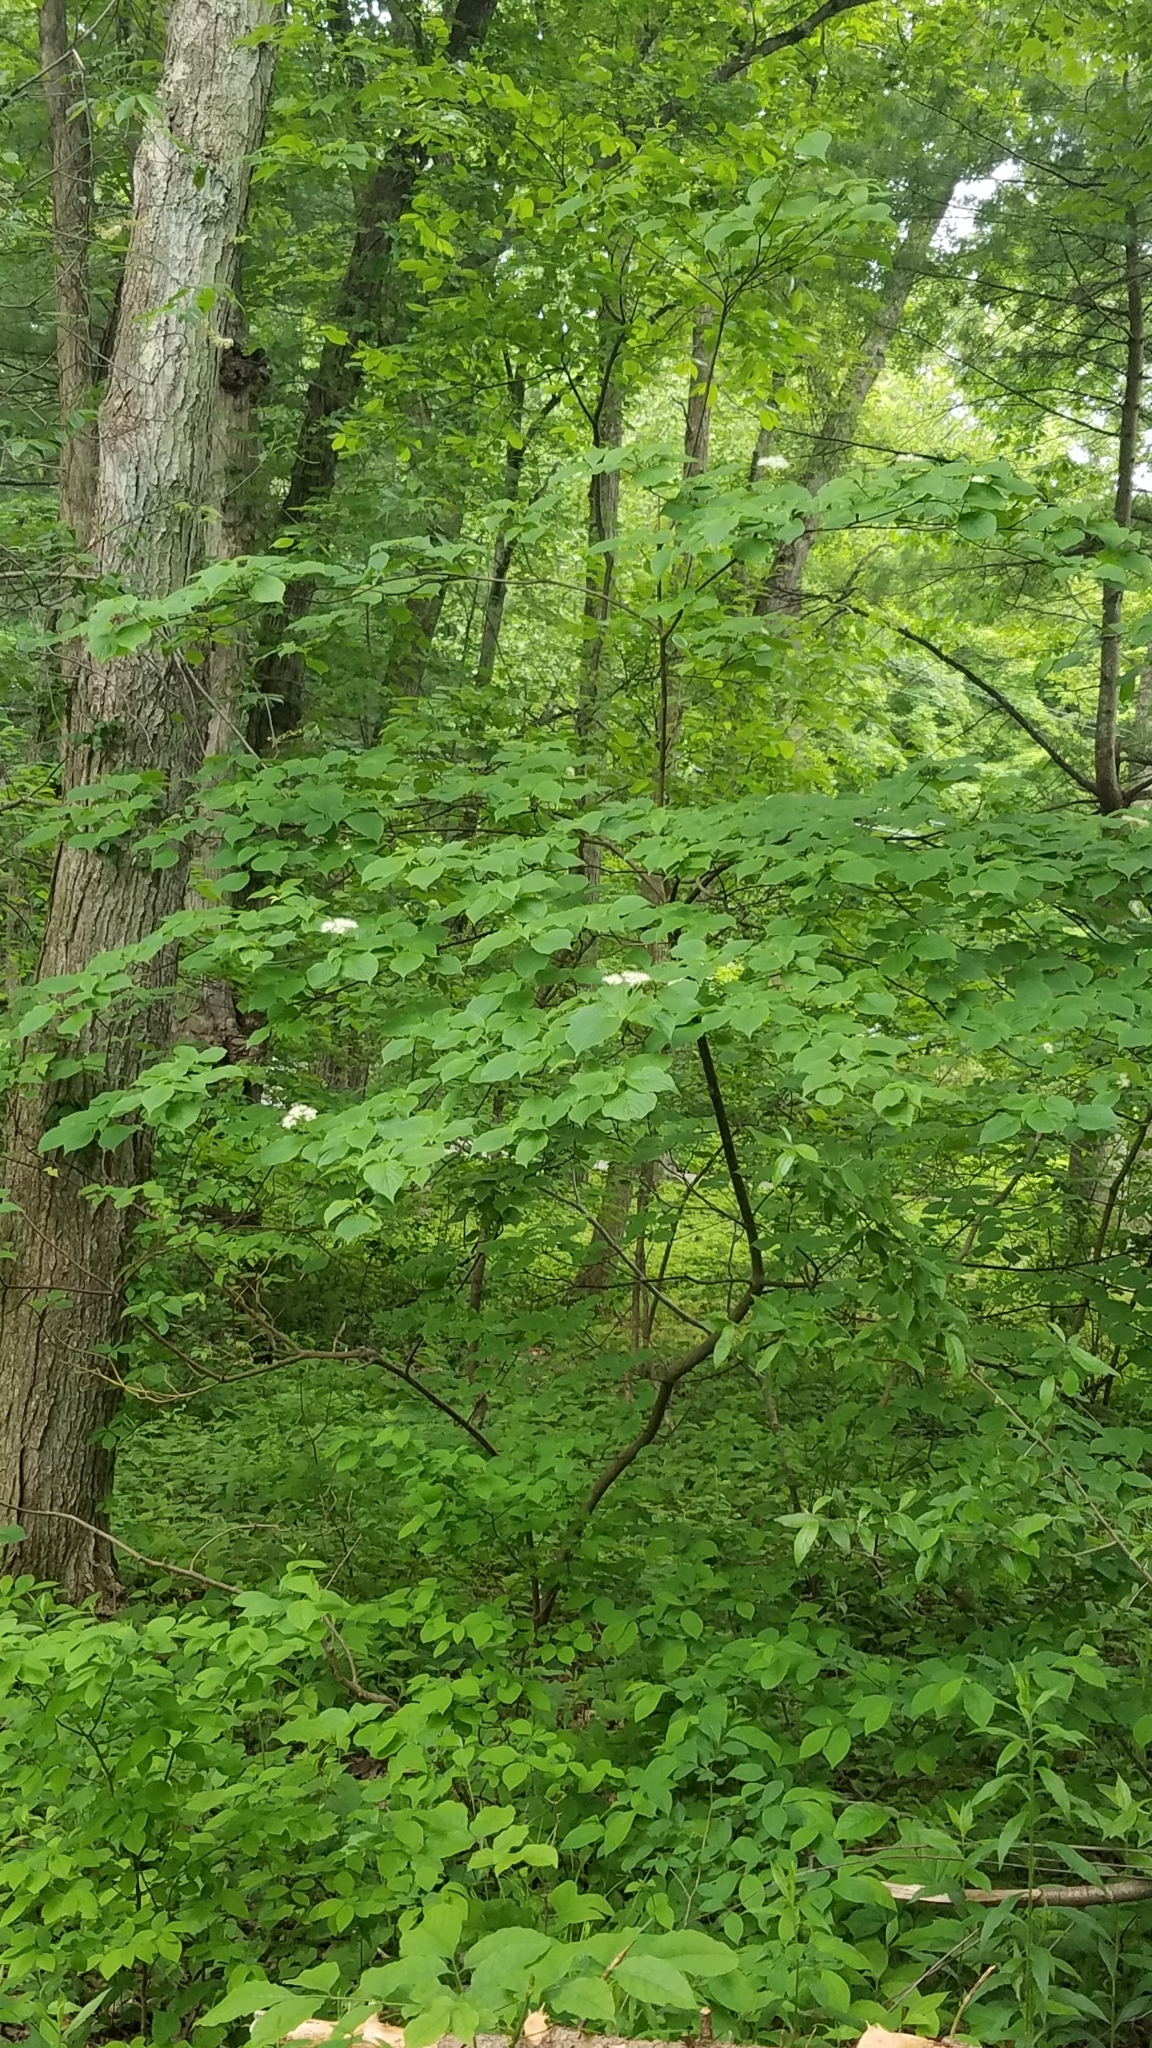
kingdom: Plantae
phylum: Tracheophyta
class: Magnoliopsida
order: Cornales
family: Cornaceae
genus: Cornus
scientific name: Cornus alternifolia
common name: Pagoda dogwood
